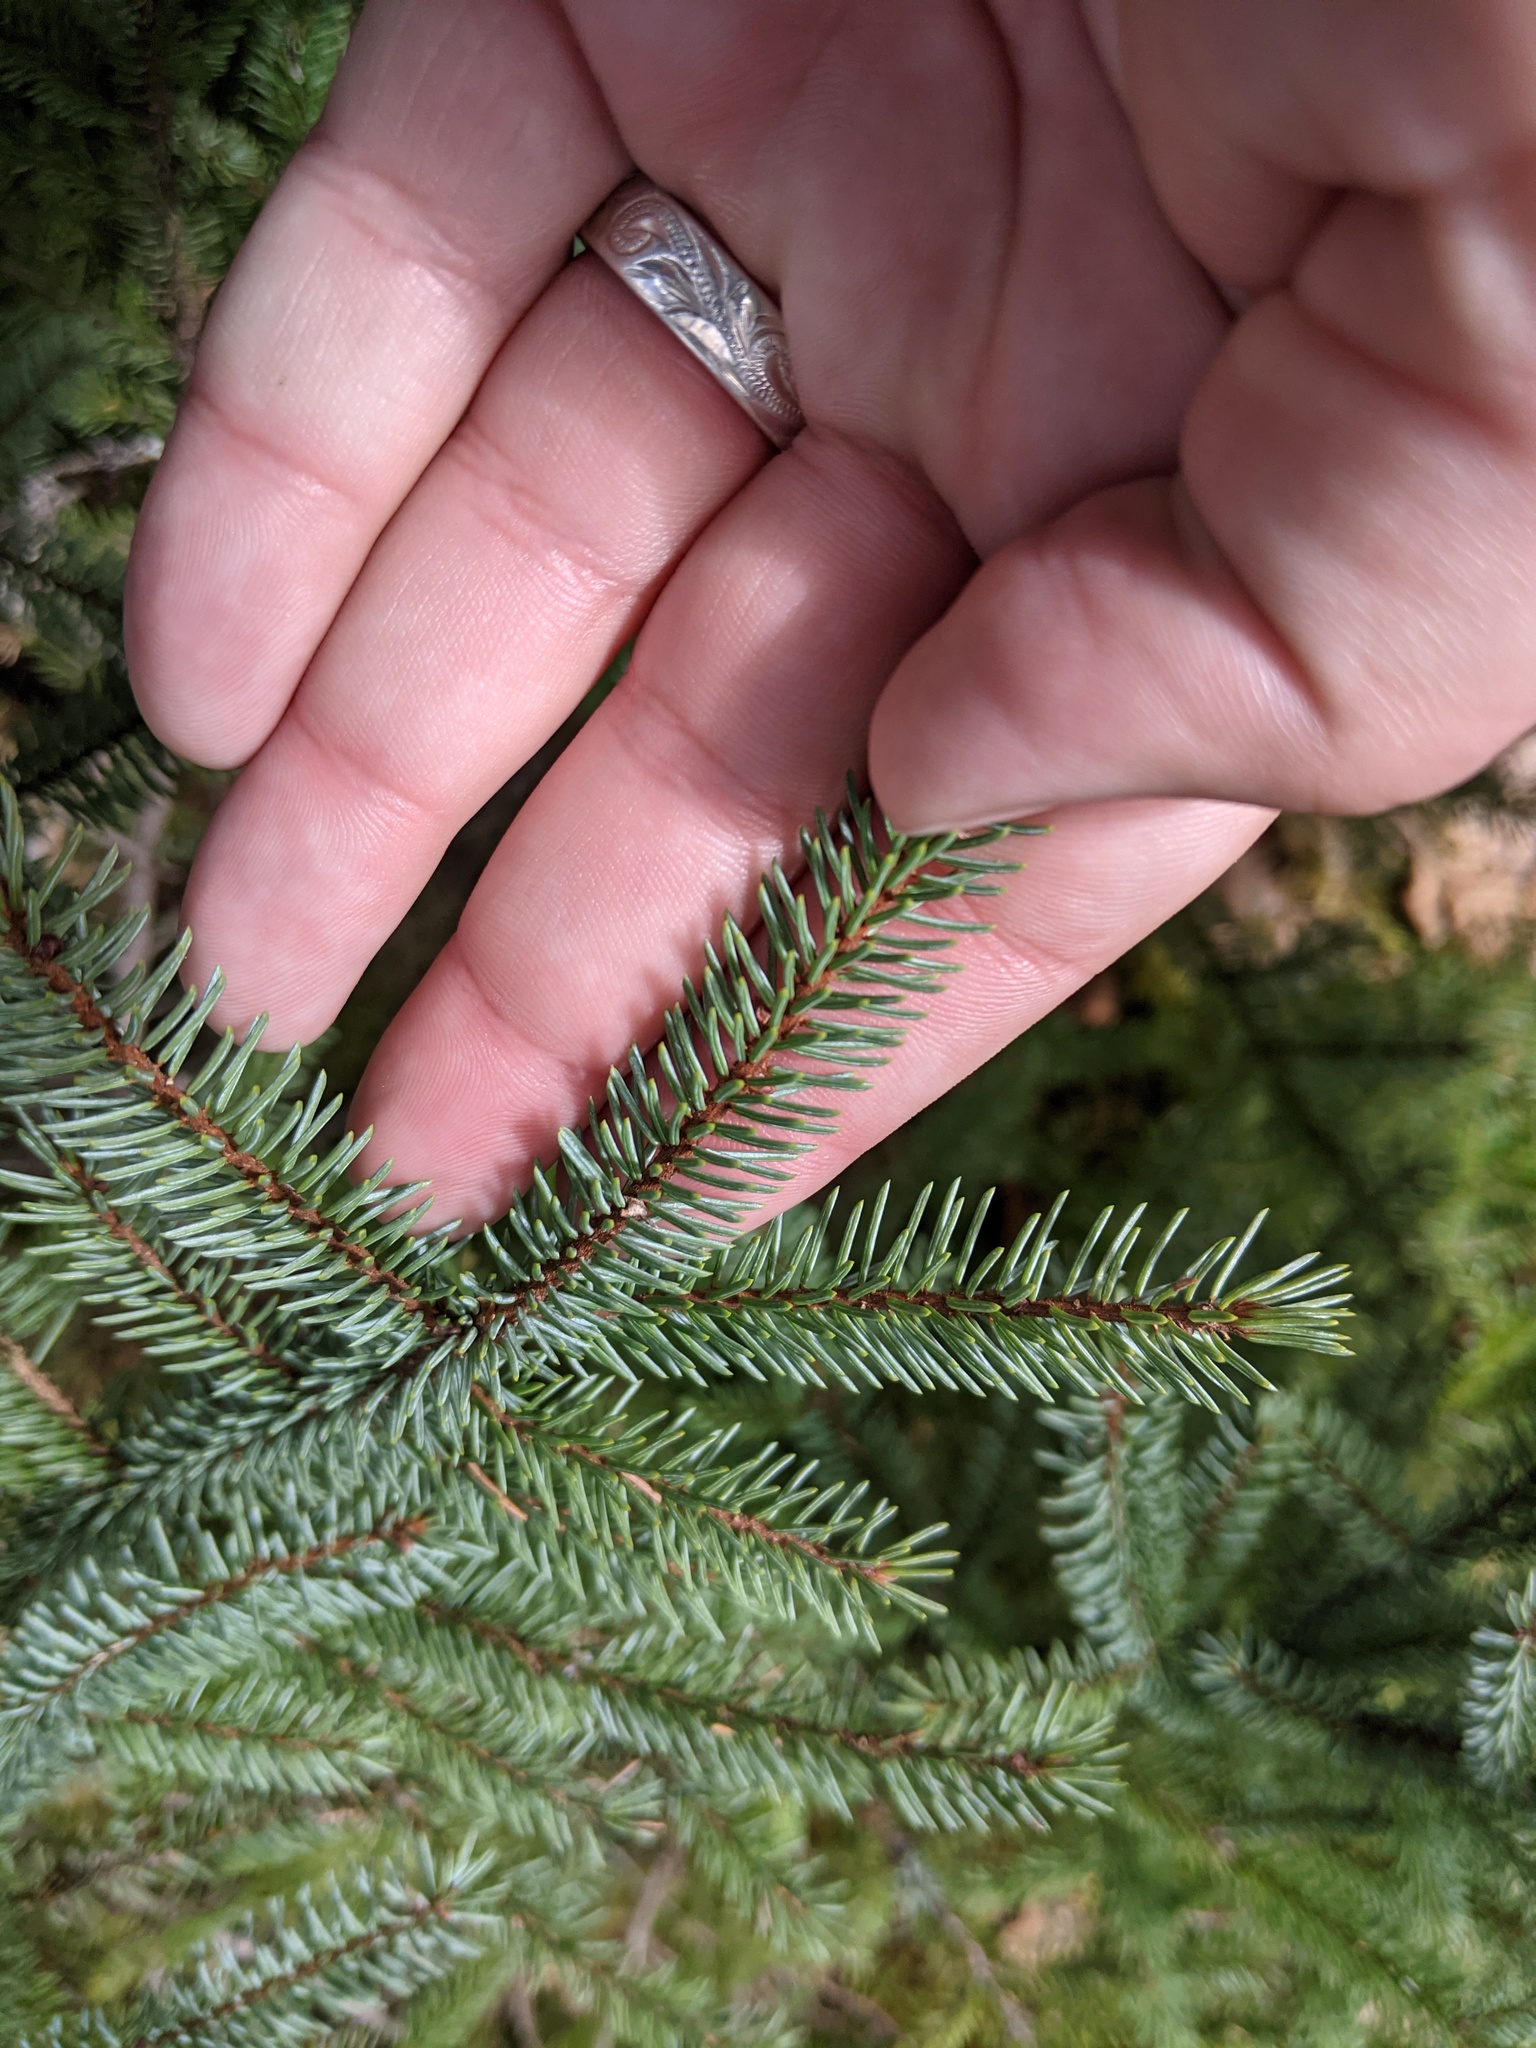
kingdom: Plantae
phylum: Tracheophyta
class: Pinopsida
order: Pinales
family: Pinaceae
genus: Picea
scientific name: Picea glauca
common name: White spruce
